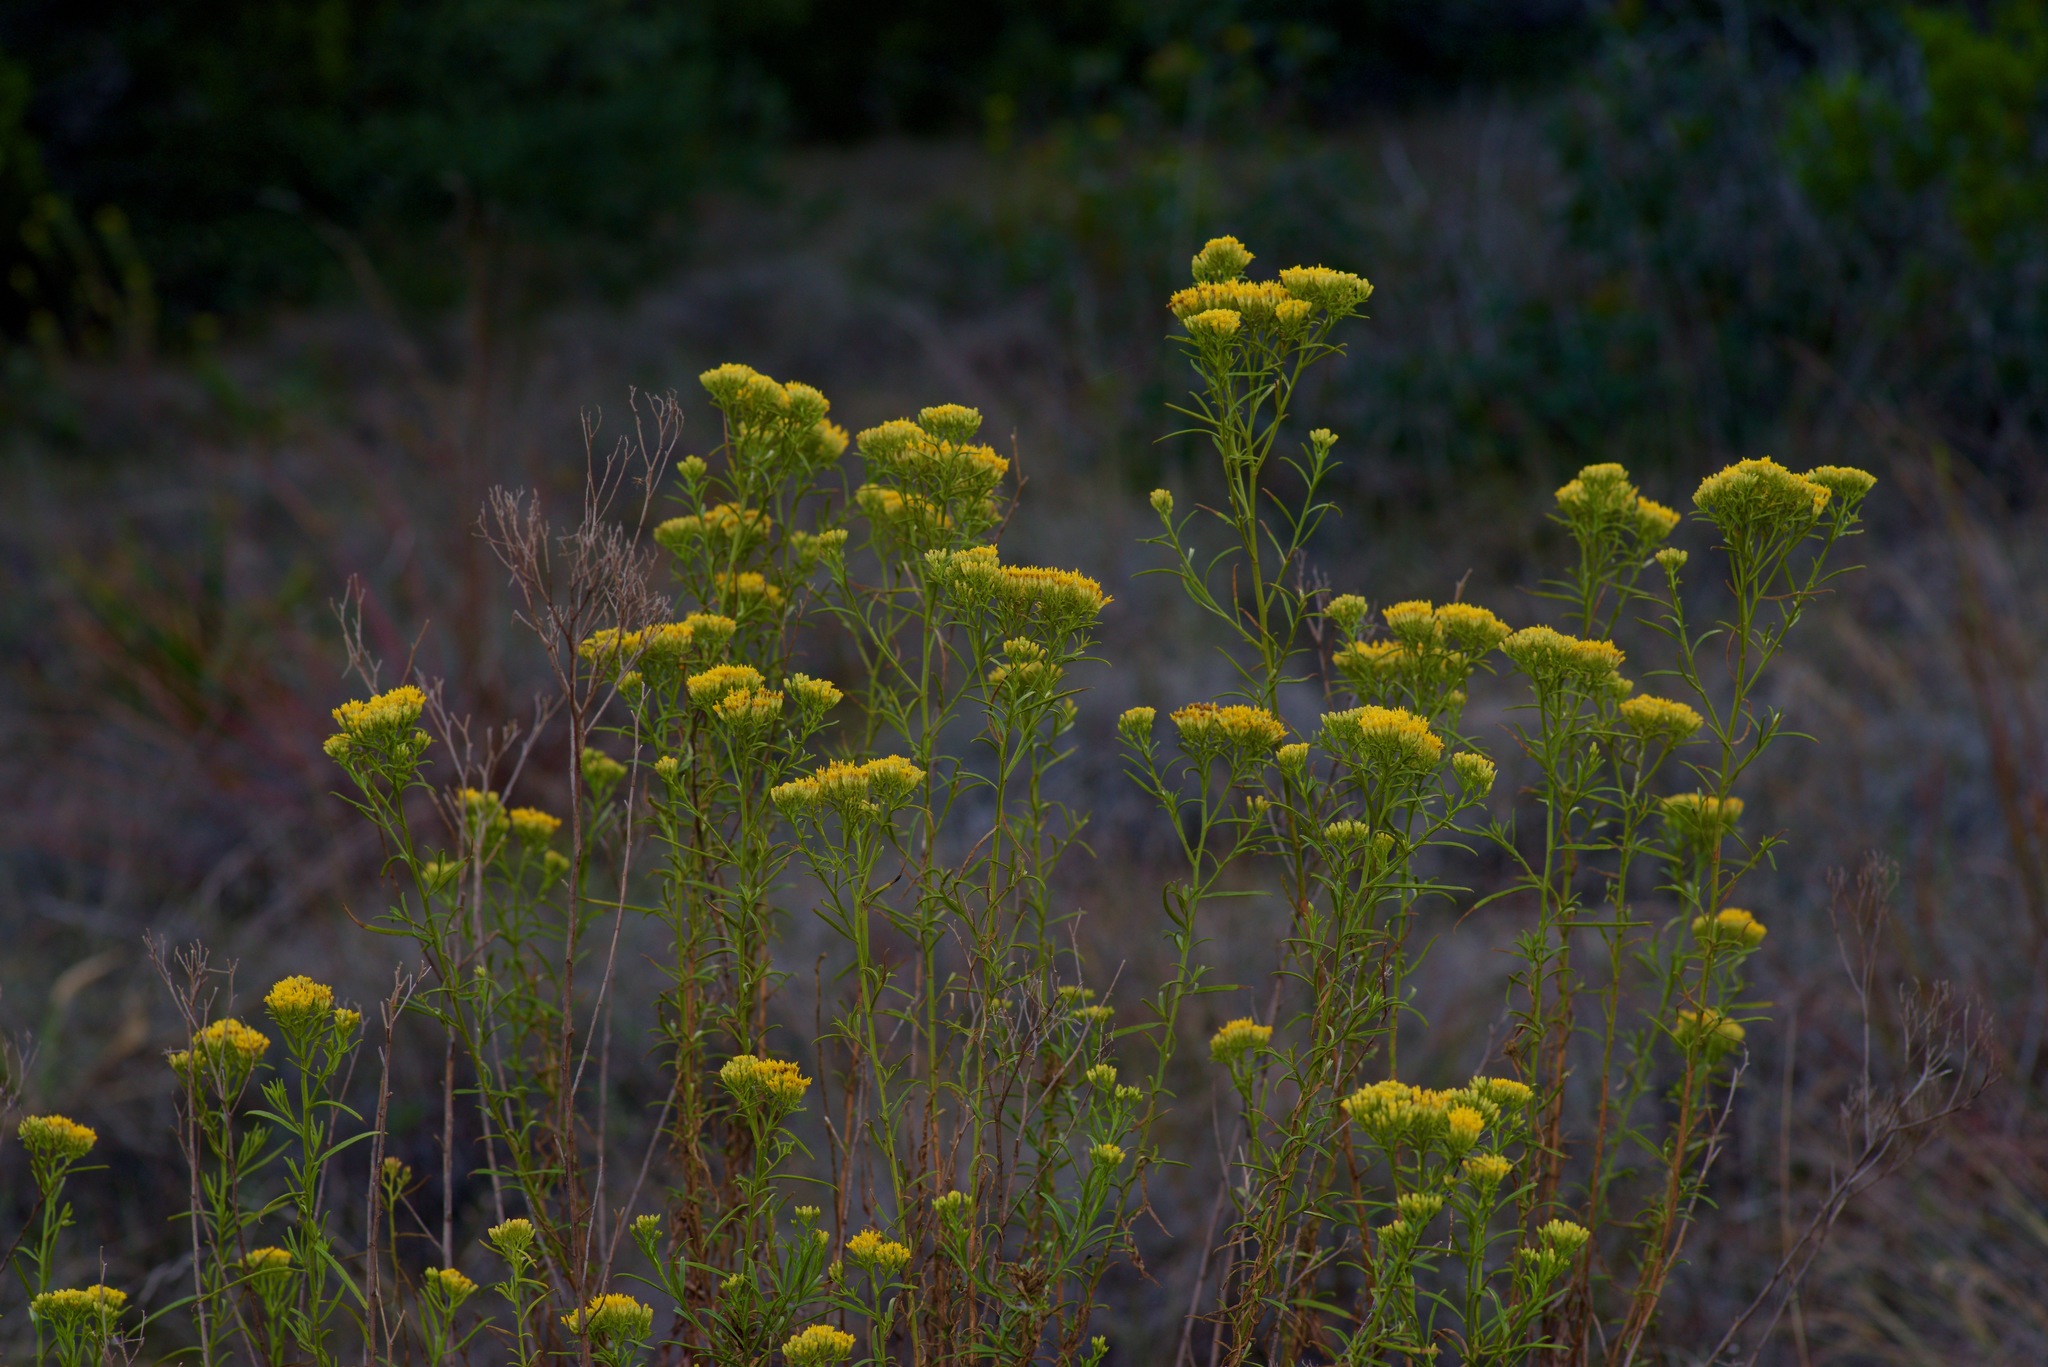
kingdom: Plantae
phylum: Tracheophyta
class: Magnoliopsida
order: Asterales
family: Asteraceae
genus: Gymnosperma
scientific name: Gymnosperma glutinosum
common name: Gumhead
